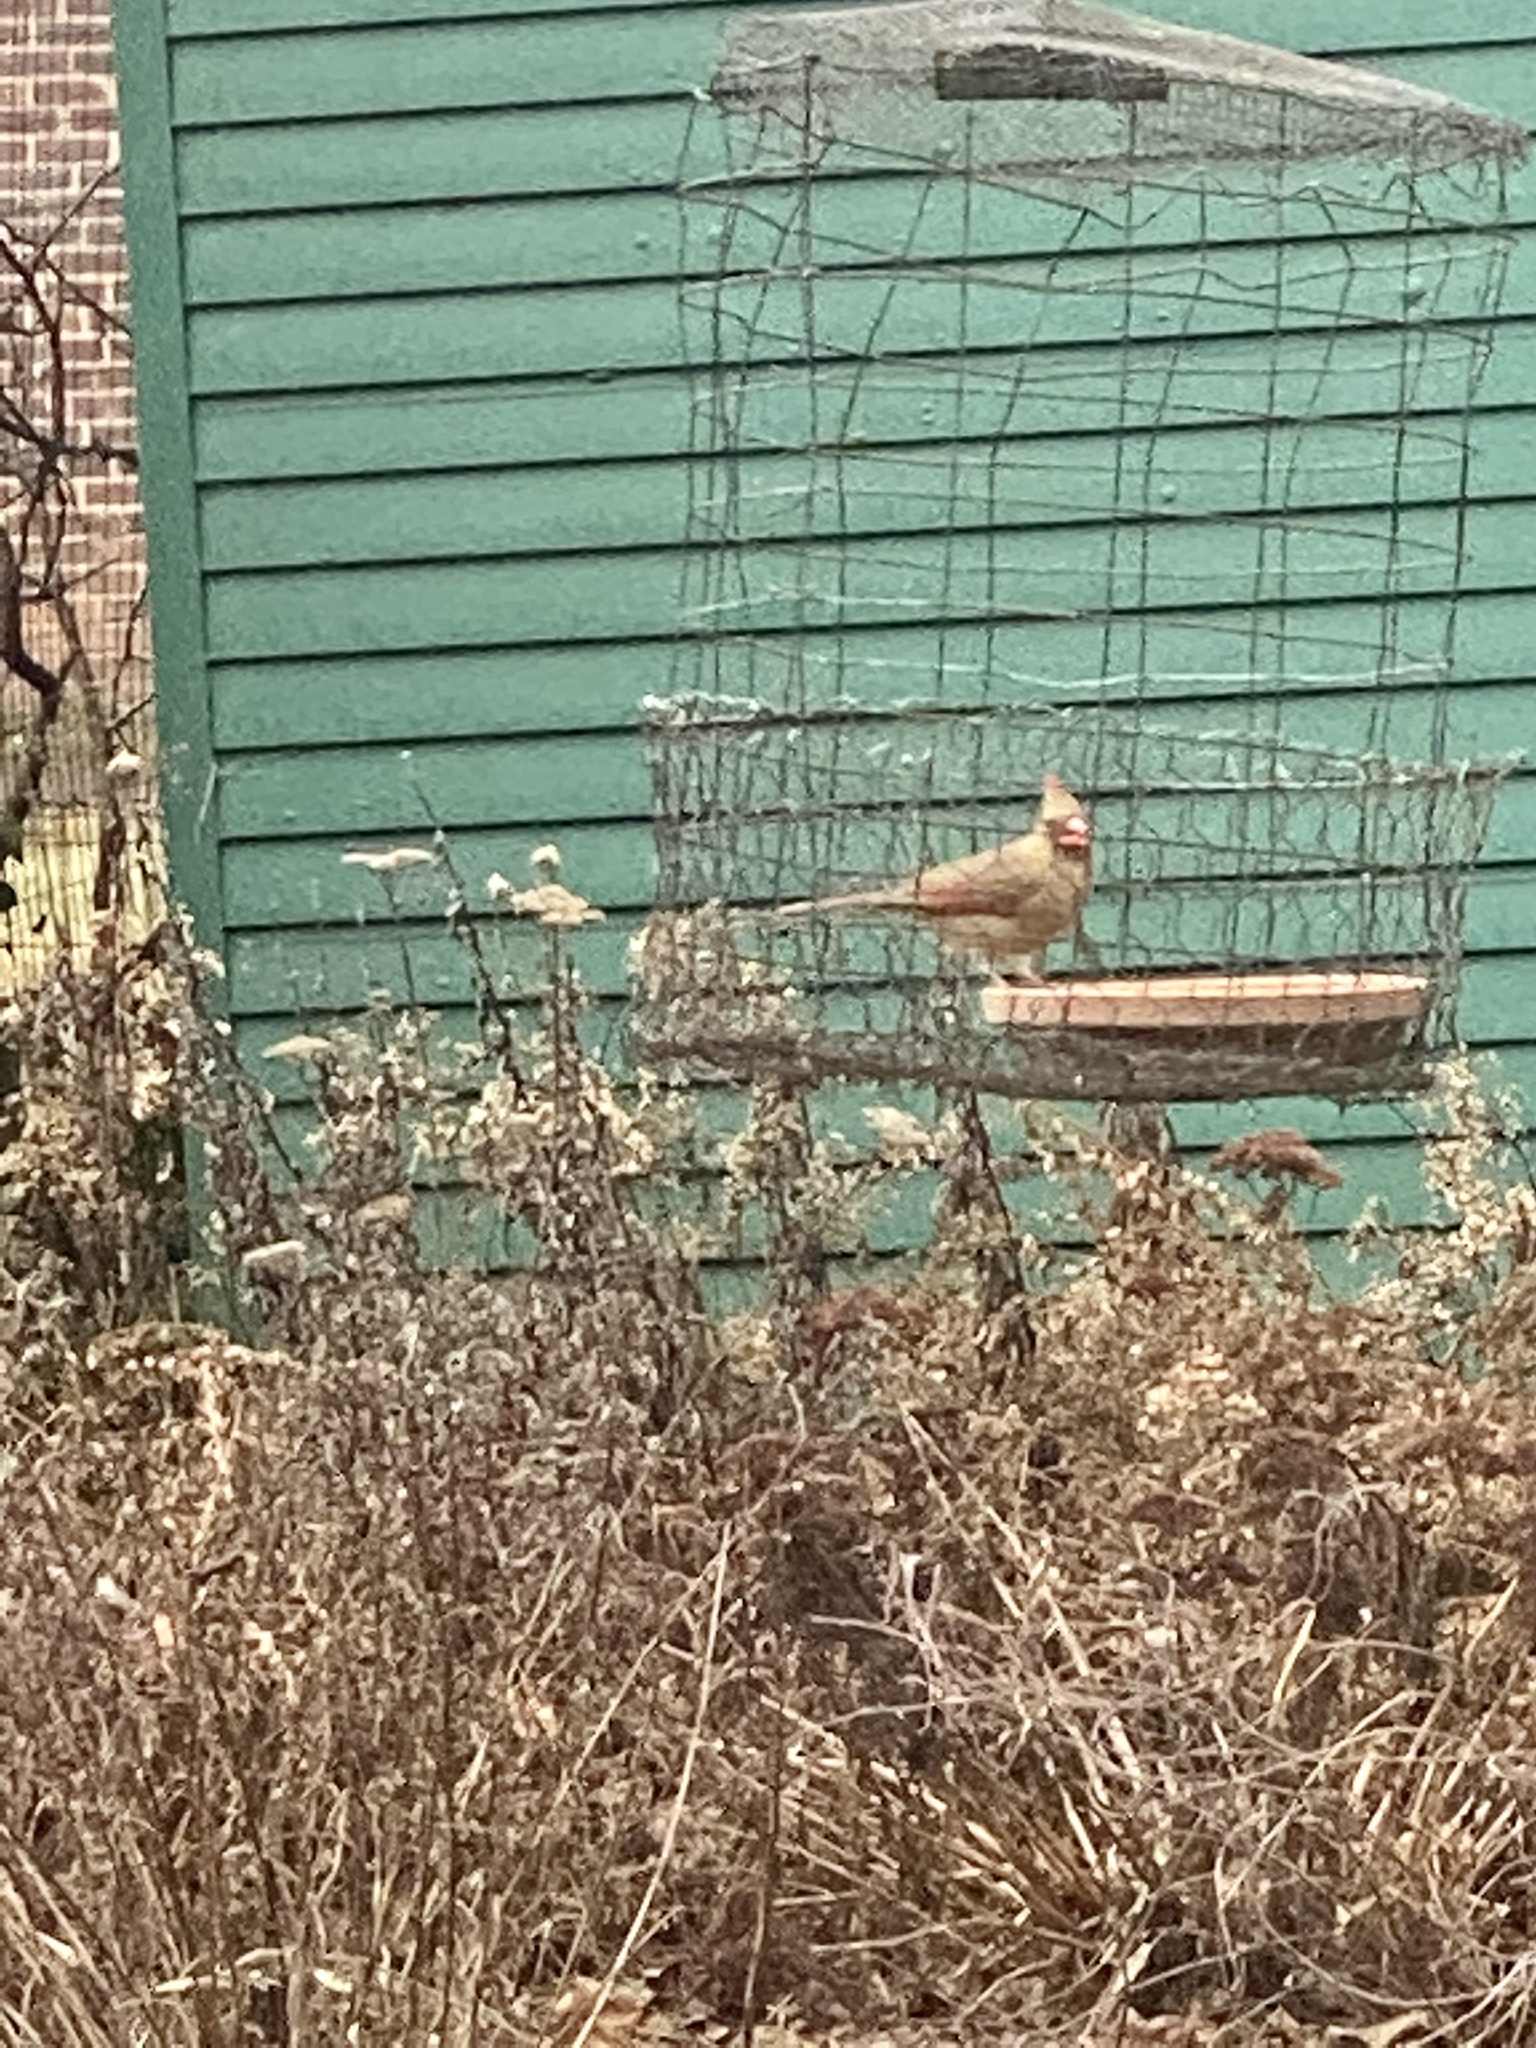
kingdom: Animalia
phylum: Chordata
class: Aves
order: Passeriformes
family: Cardinalidae
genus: Cardinalis
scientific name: Cardinalis cardinalis
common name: Northern cardinal
